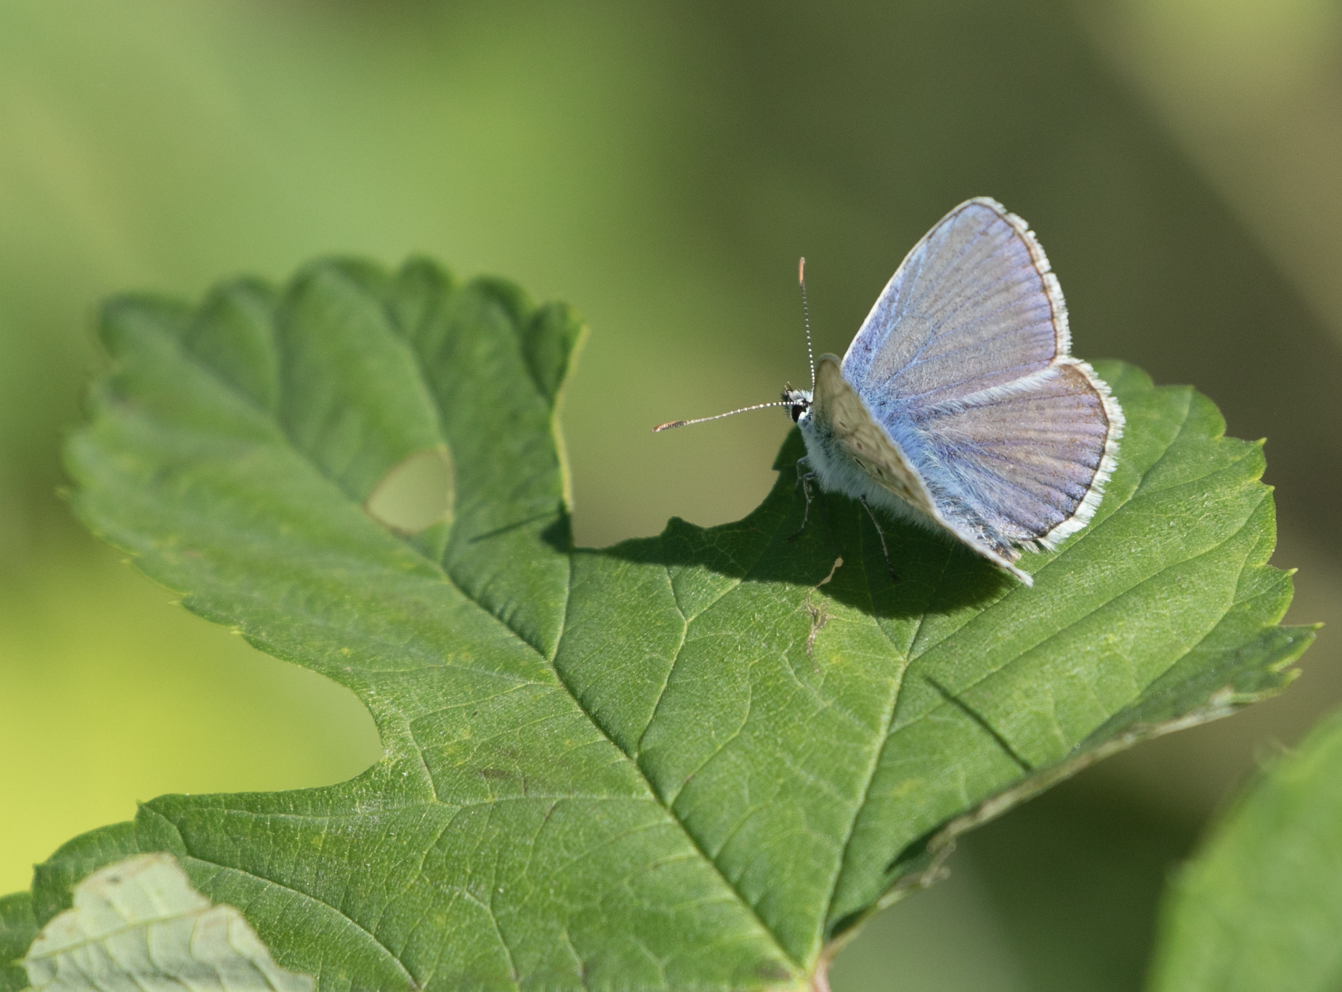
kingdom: Animalia
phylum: Arthropoda
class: Insecta
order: Lepidoptera
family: Lycaenidae
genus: Polyommatus
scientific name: Polyommatus icarus
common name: Common blue
